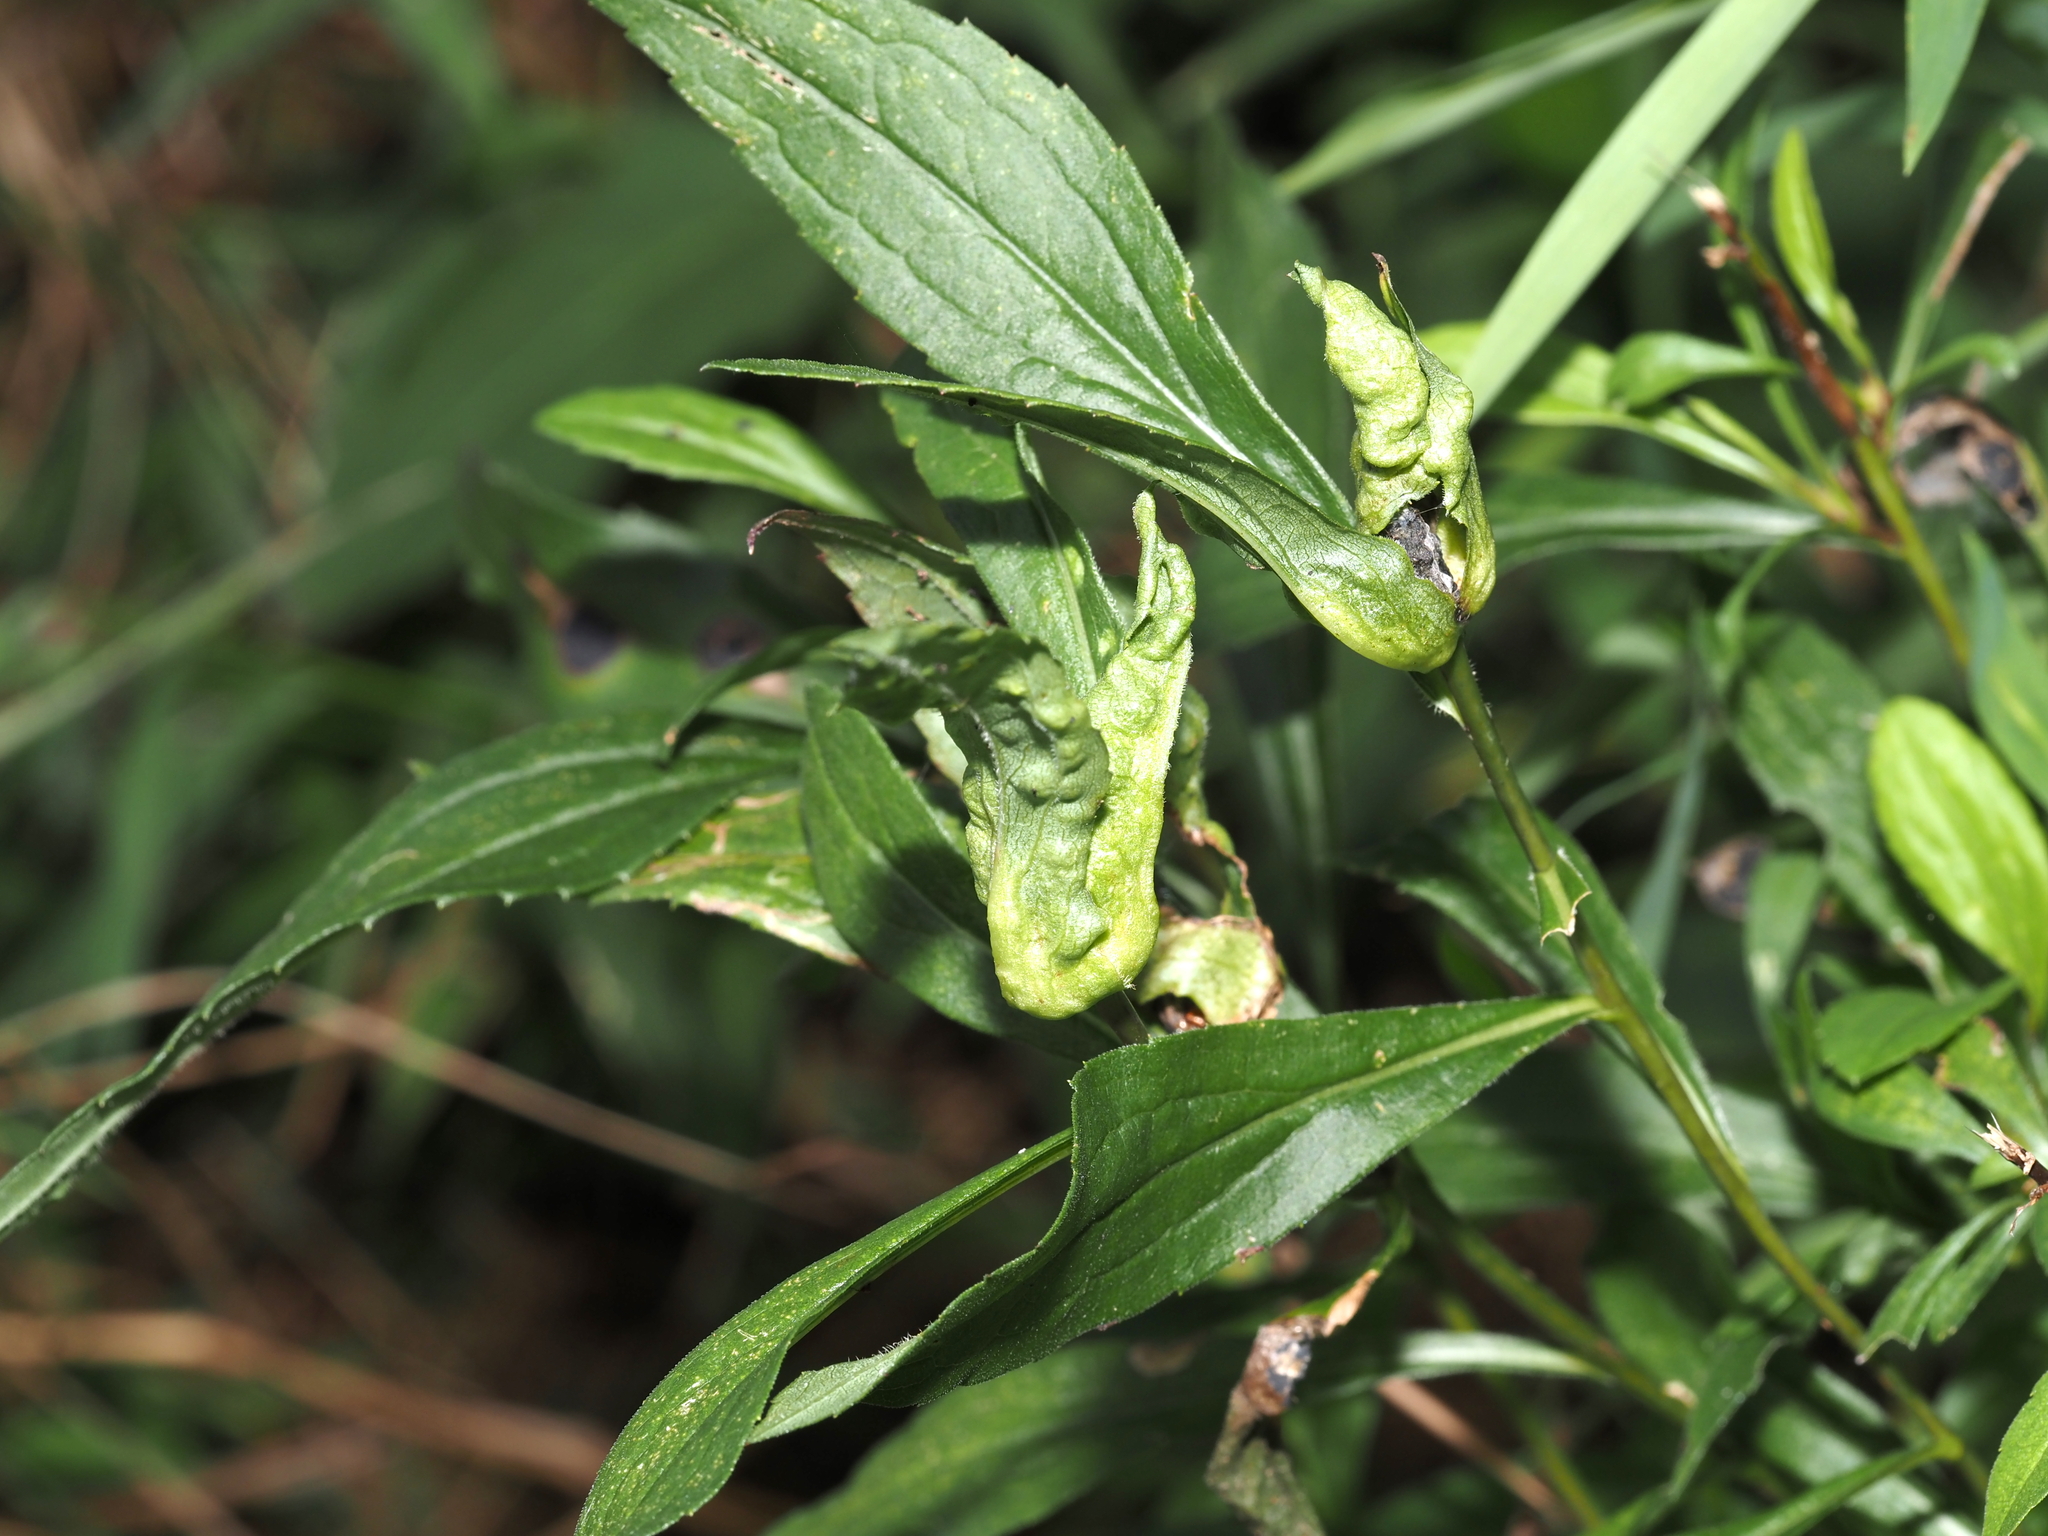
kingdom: Animalia
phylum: Arthropoda
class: Insecta
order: Diptera
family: Cecidomyiidae
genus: Dasineura
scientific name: Dasineura folliculi
